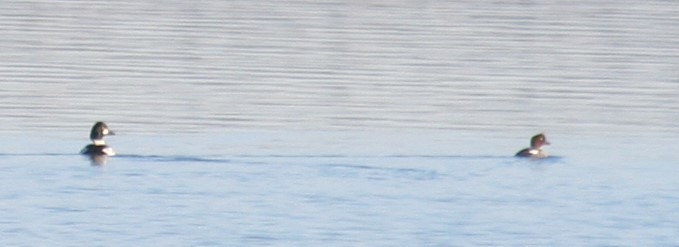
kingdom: Animalia
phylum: Chordata
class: Aves
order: Anseriformes
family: Anatidae
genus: Bucephala
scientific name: Bucephala clangula
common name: Common goldeneye
